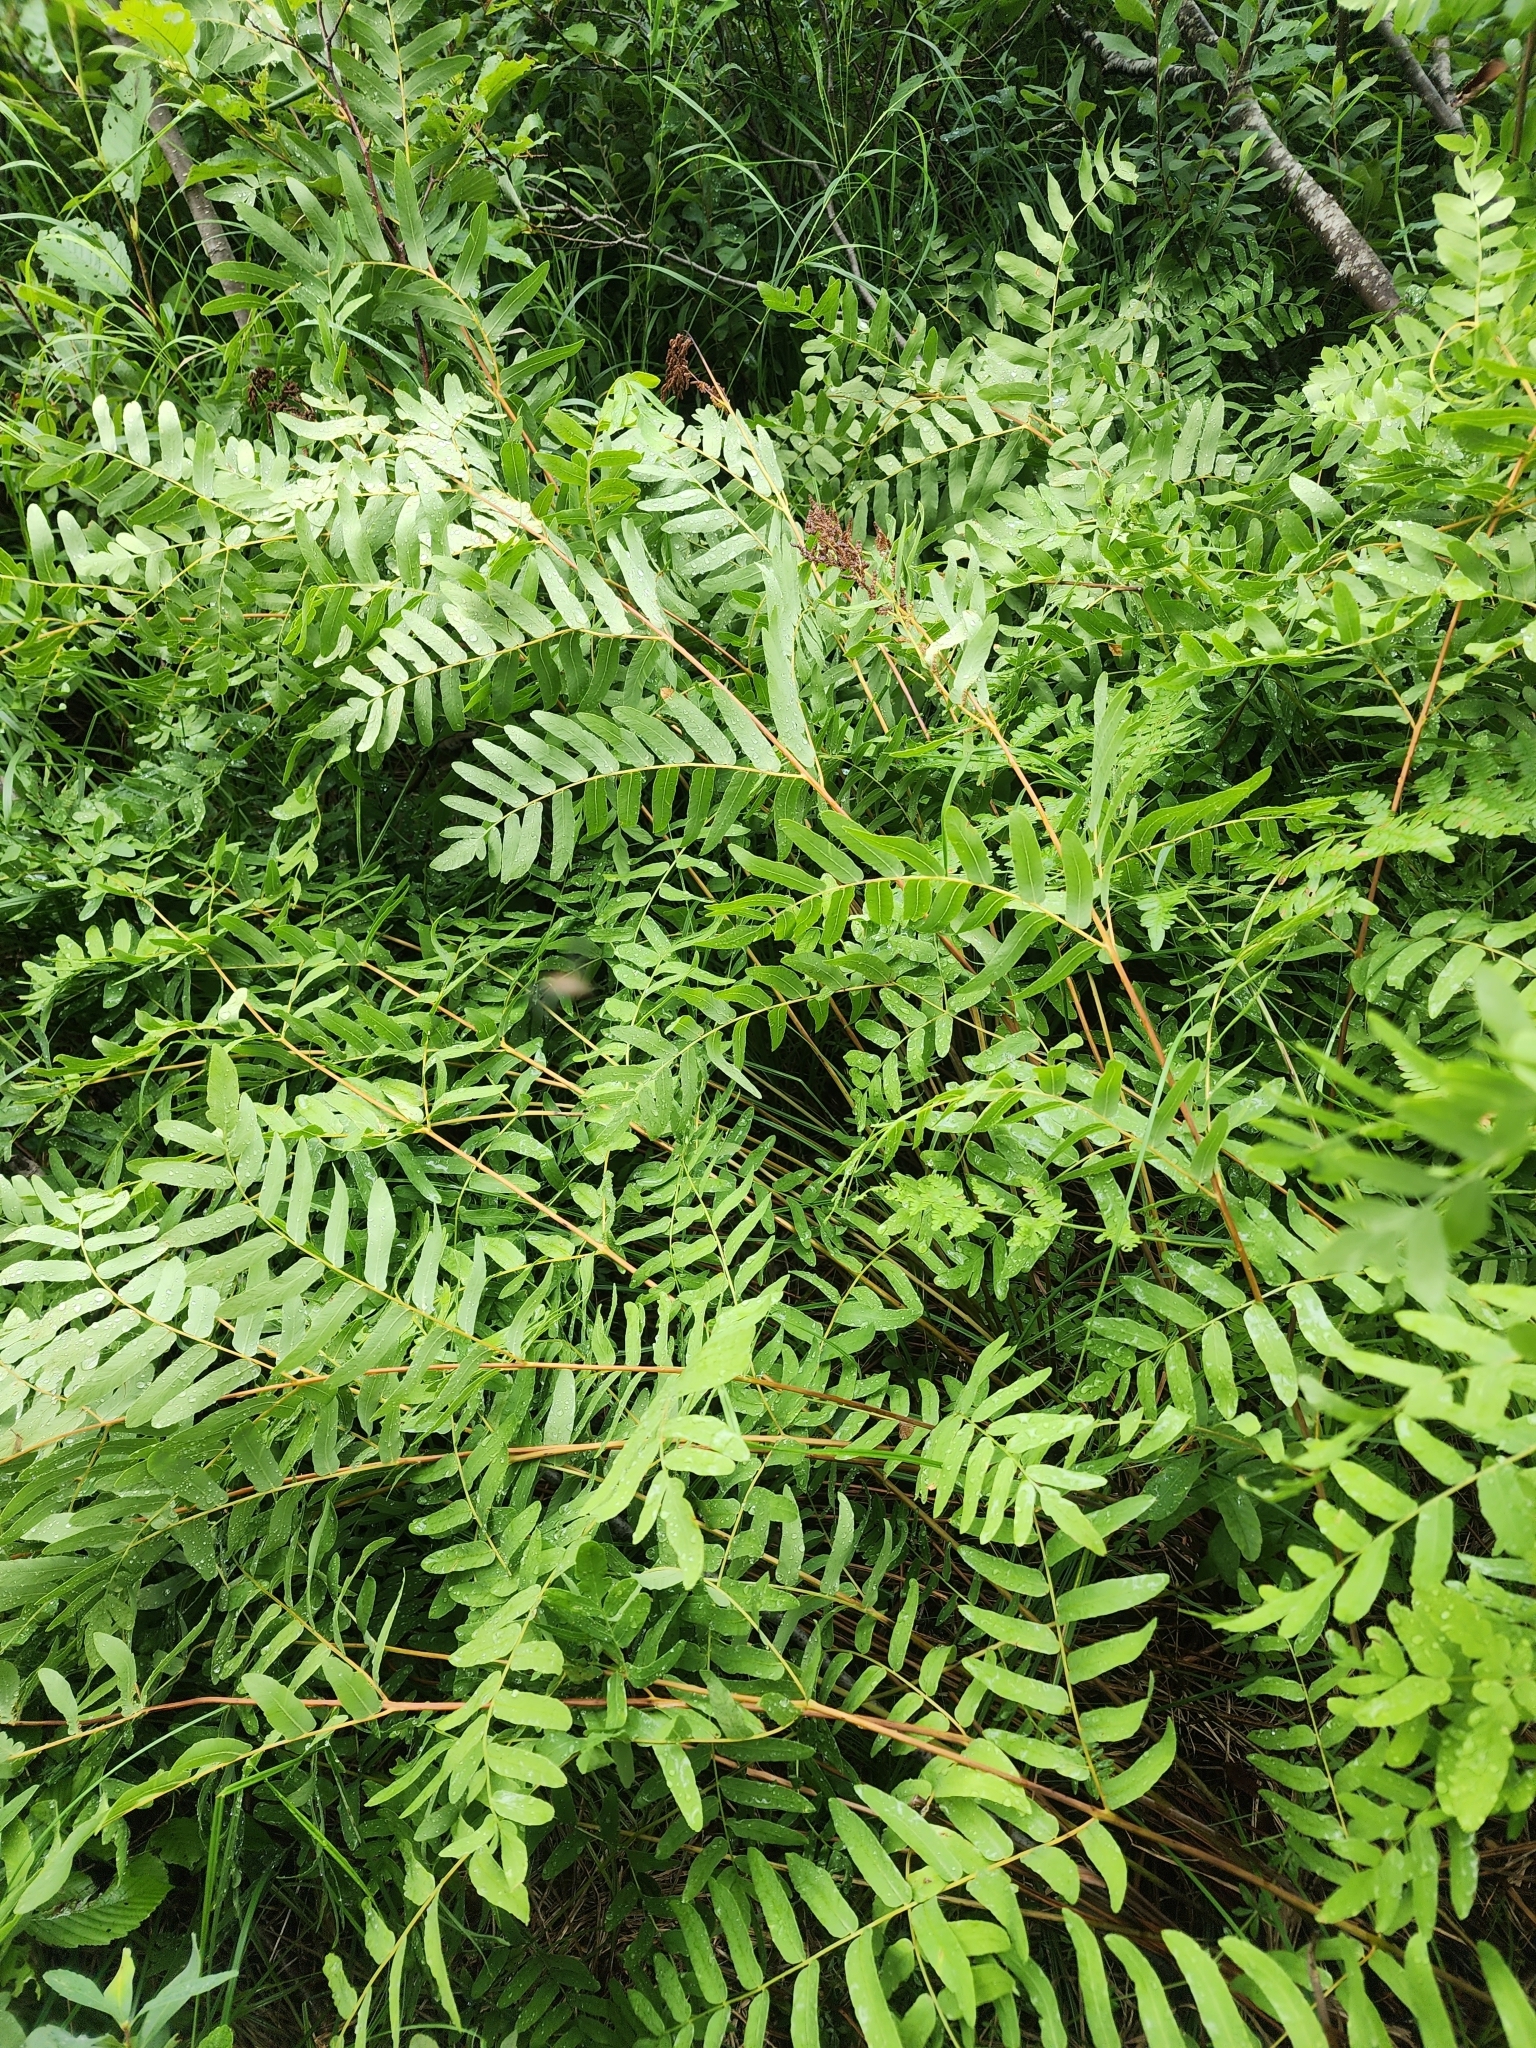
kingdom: Plantae
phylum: Tracheophyta
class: Polypodiopsida
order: Osmundales
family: Osmundaceae
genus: Osmunda
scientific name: Osmunda spectabilis
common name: American royal fern
